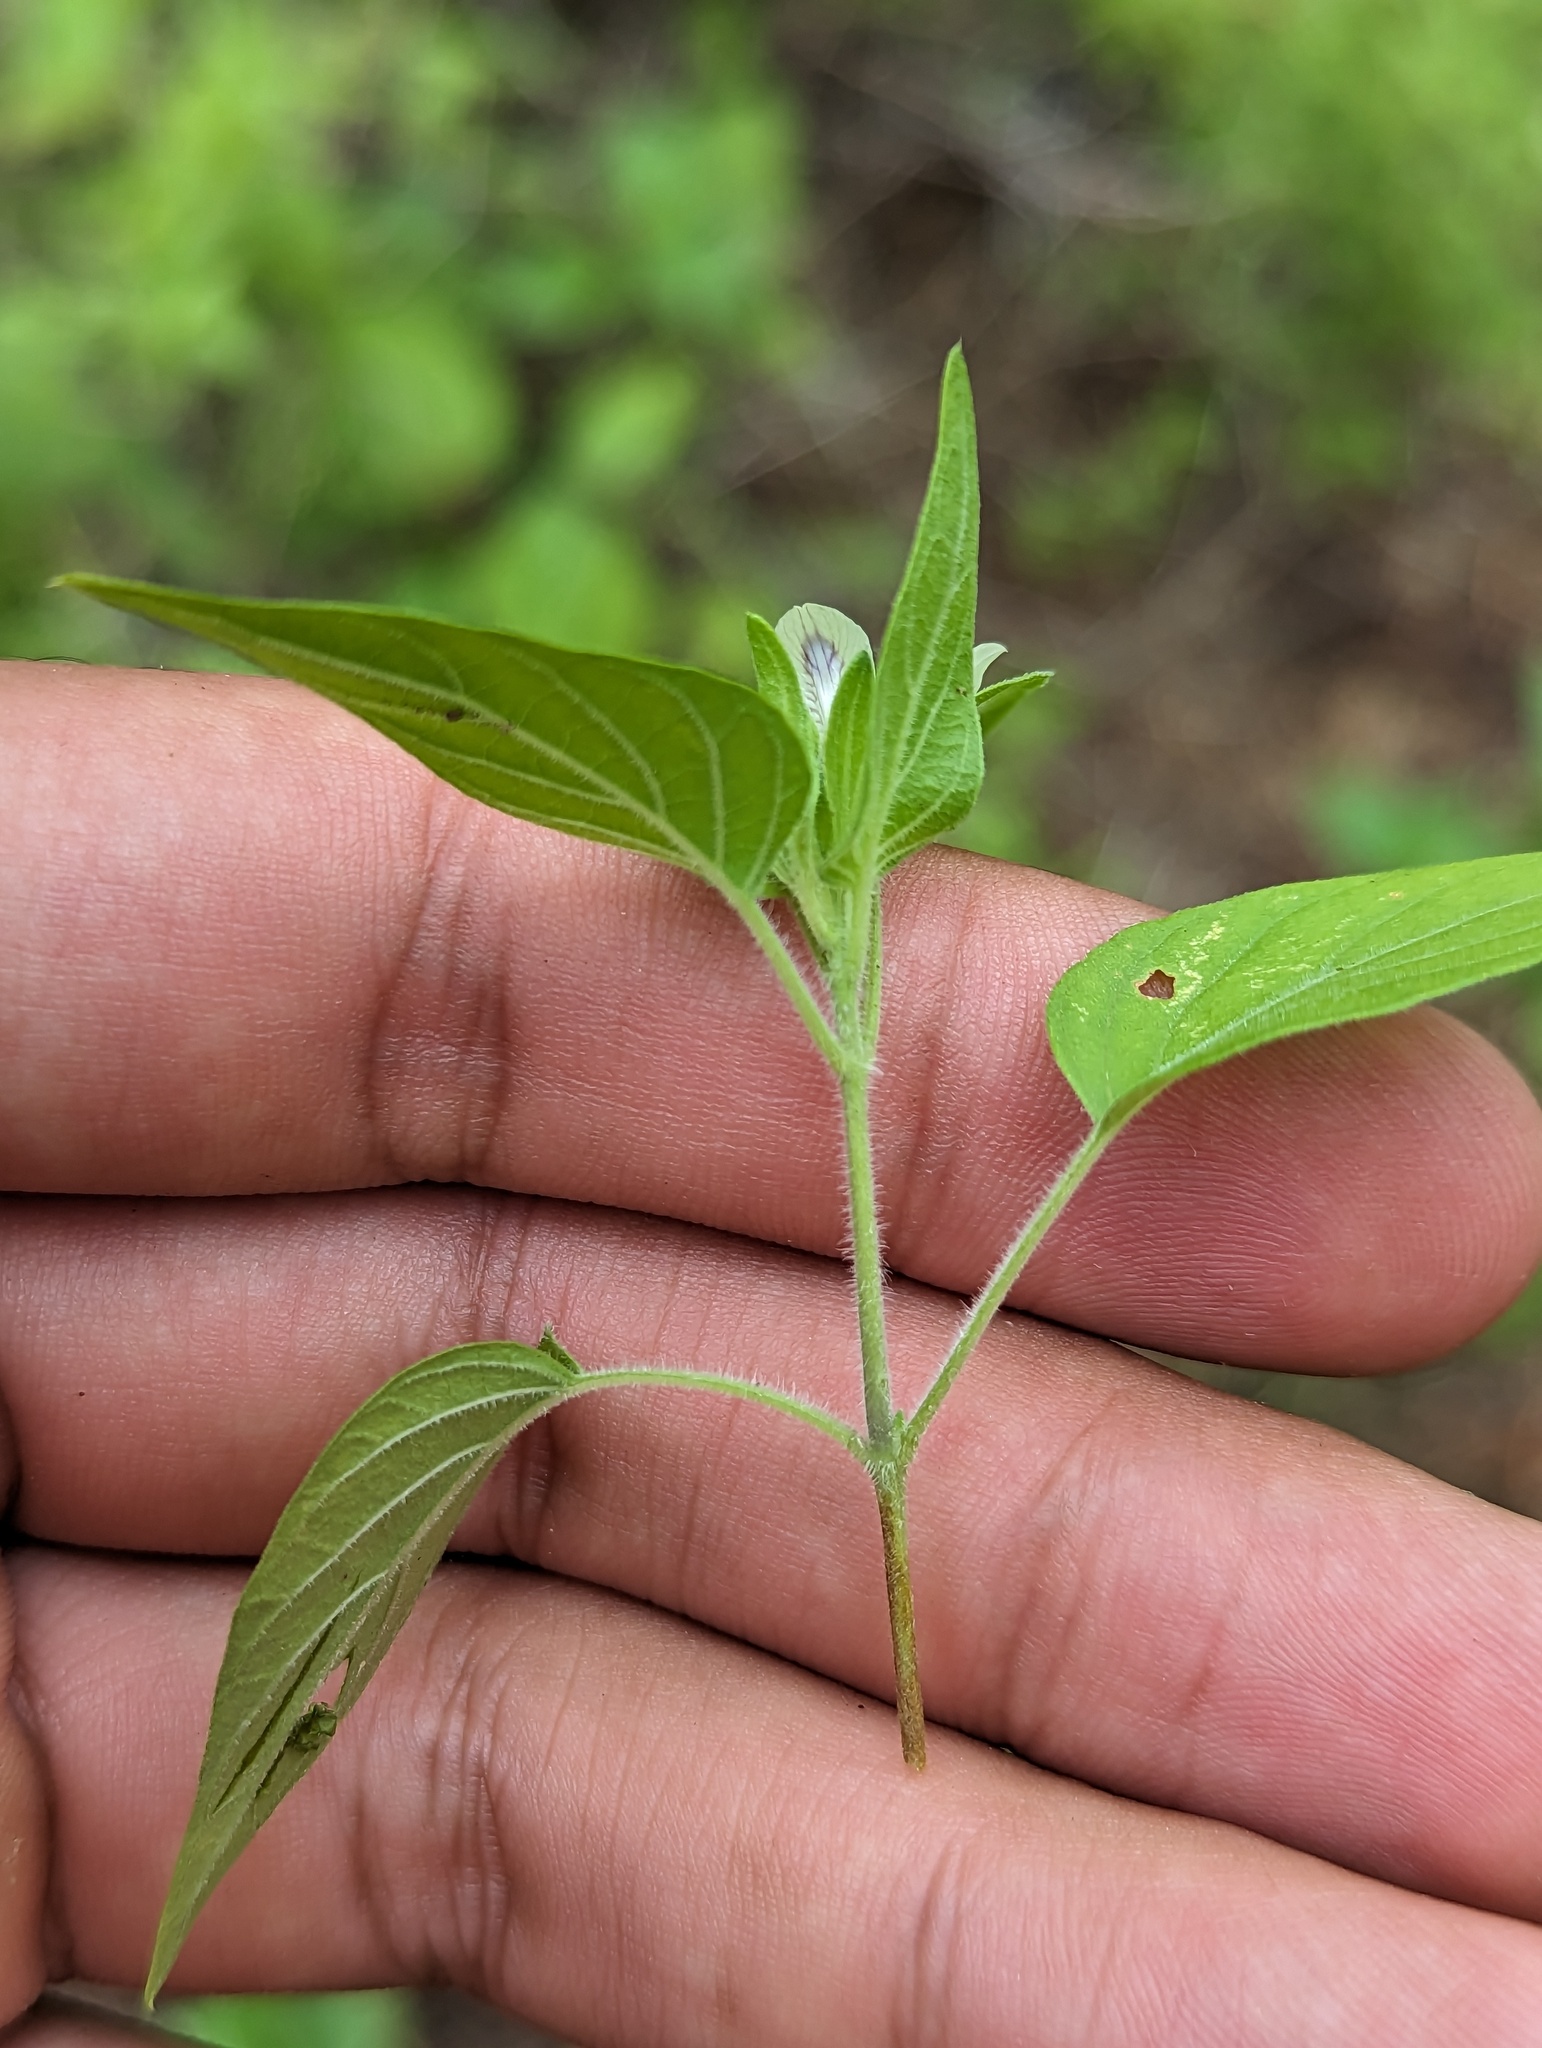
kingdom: Plantae
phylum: Tracheophyta
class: Magnoliopsida
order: Lamiales
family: Acanthaceae
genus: Carlowrightia
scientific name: Carlowrightia arizonica
